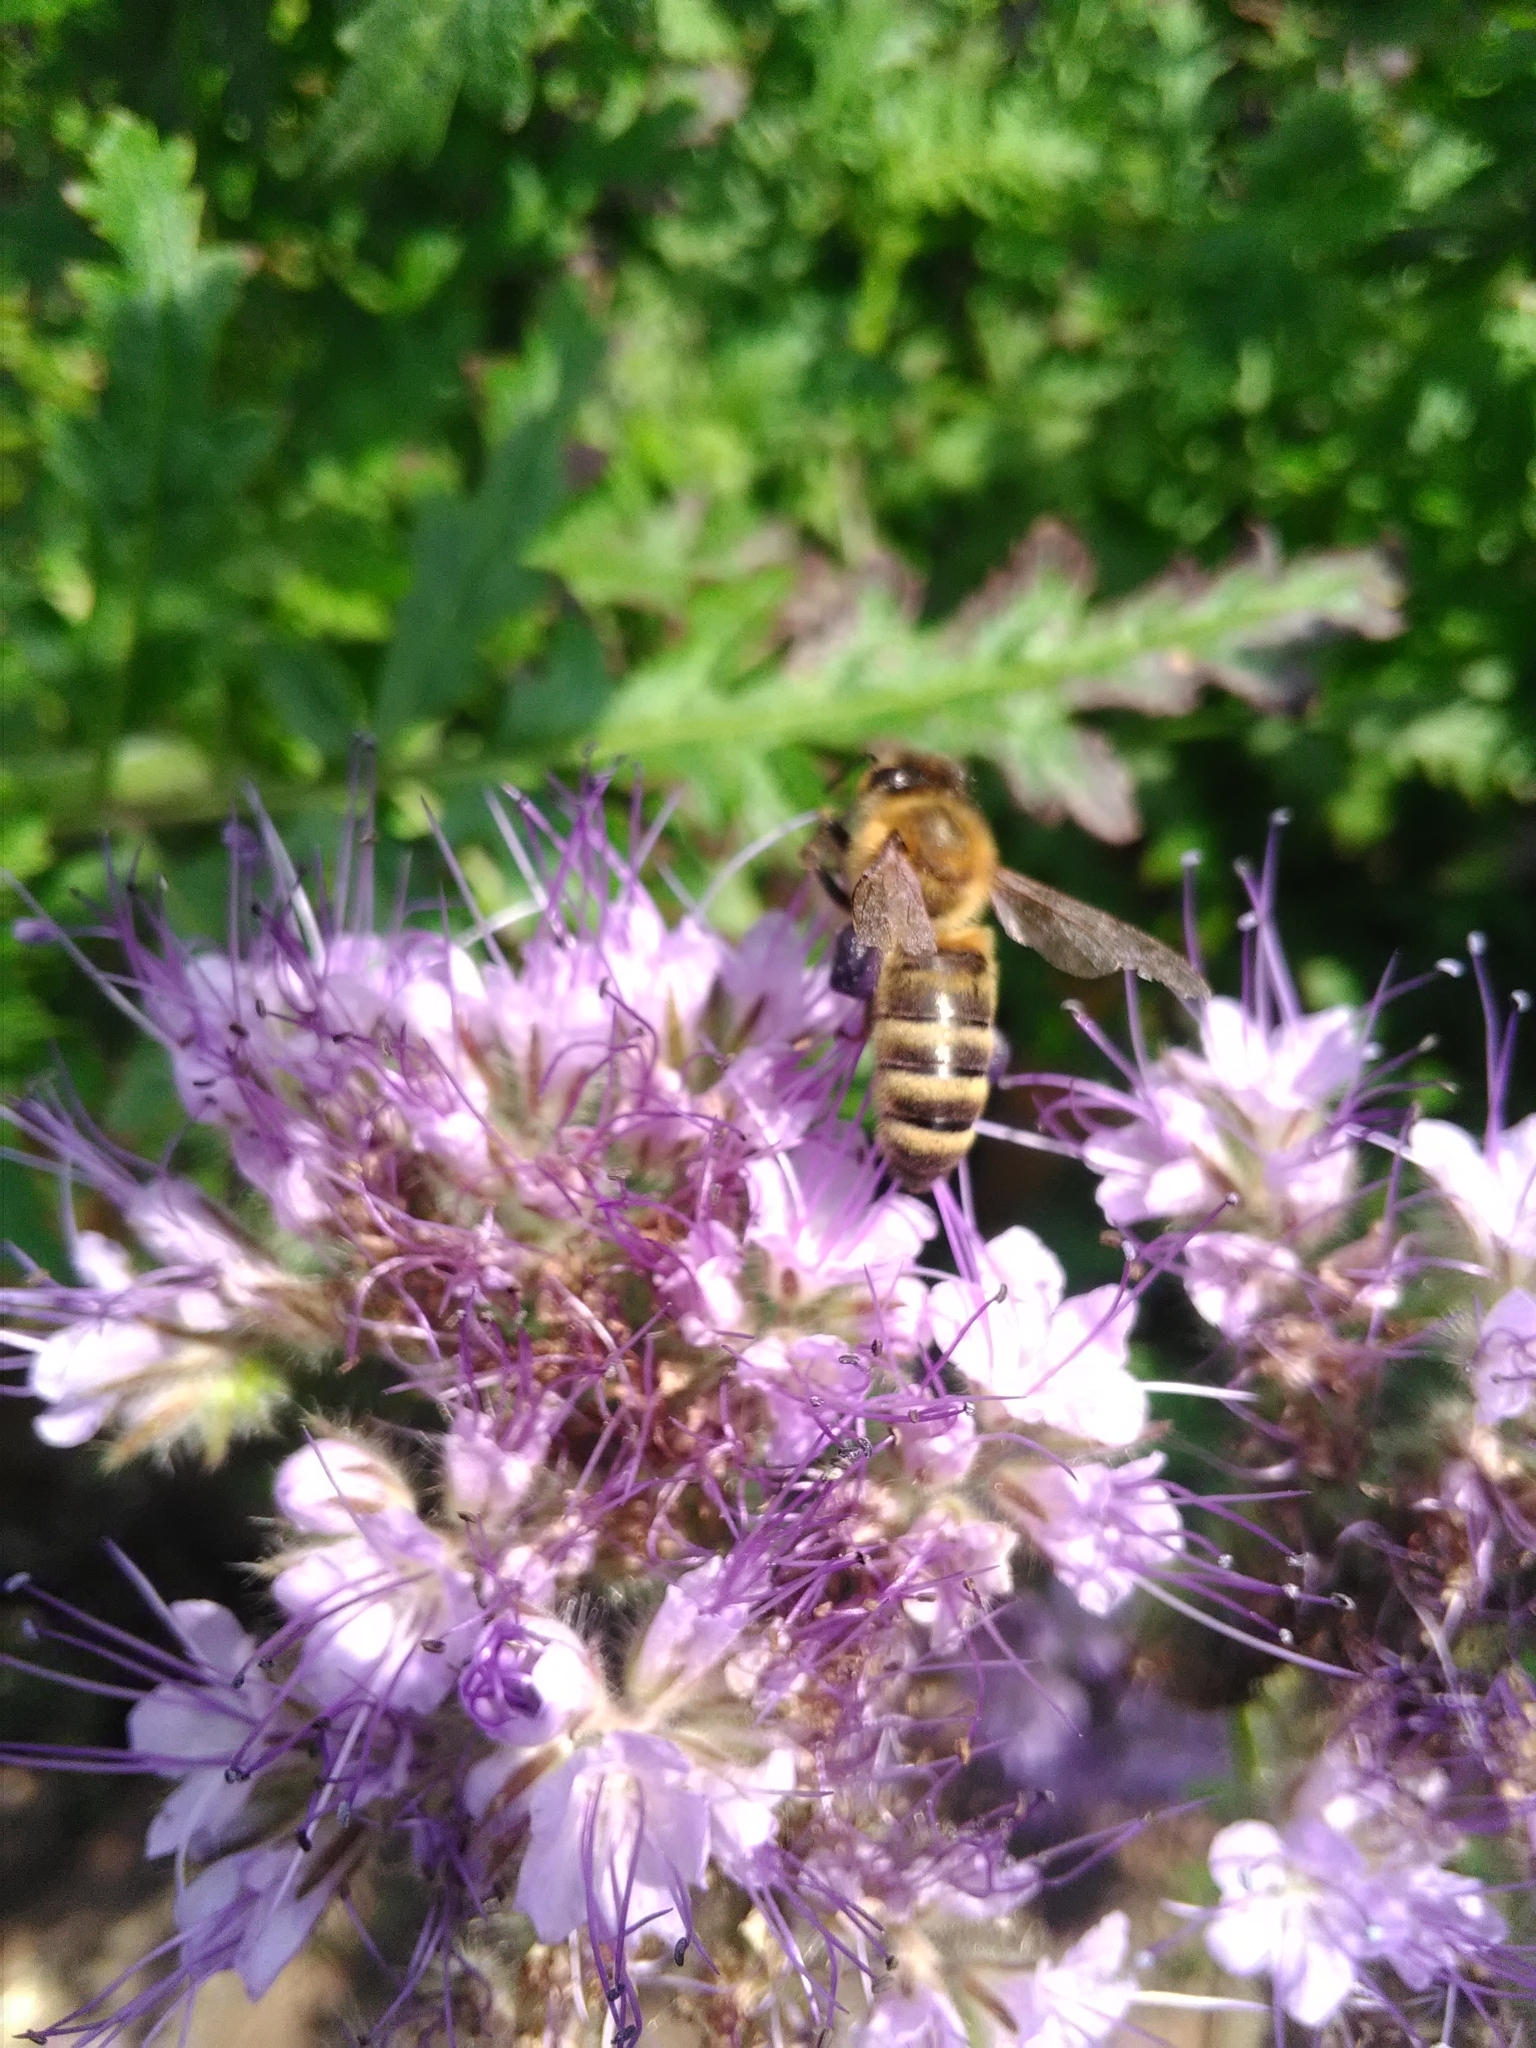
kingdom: Animalia
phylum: Arthropoda
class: Insecta
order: Hymenoptera
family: Apidae
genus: Apis
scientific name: Apis mellifera
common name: Honey bee
